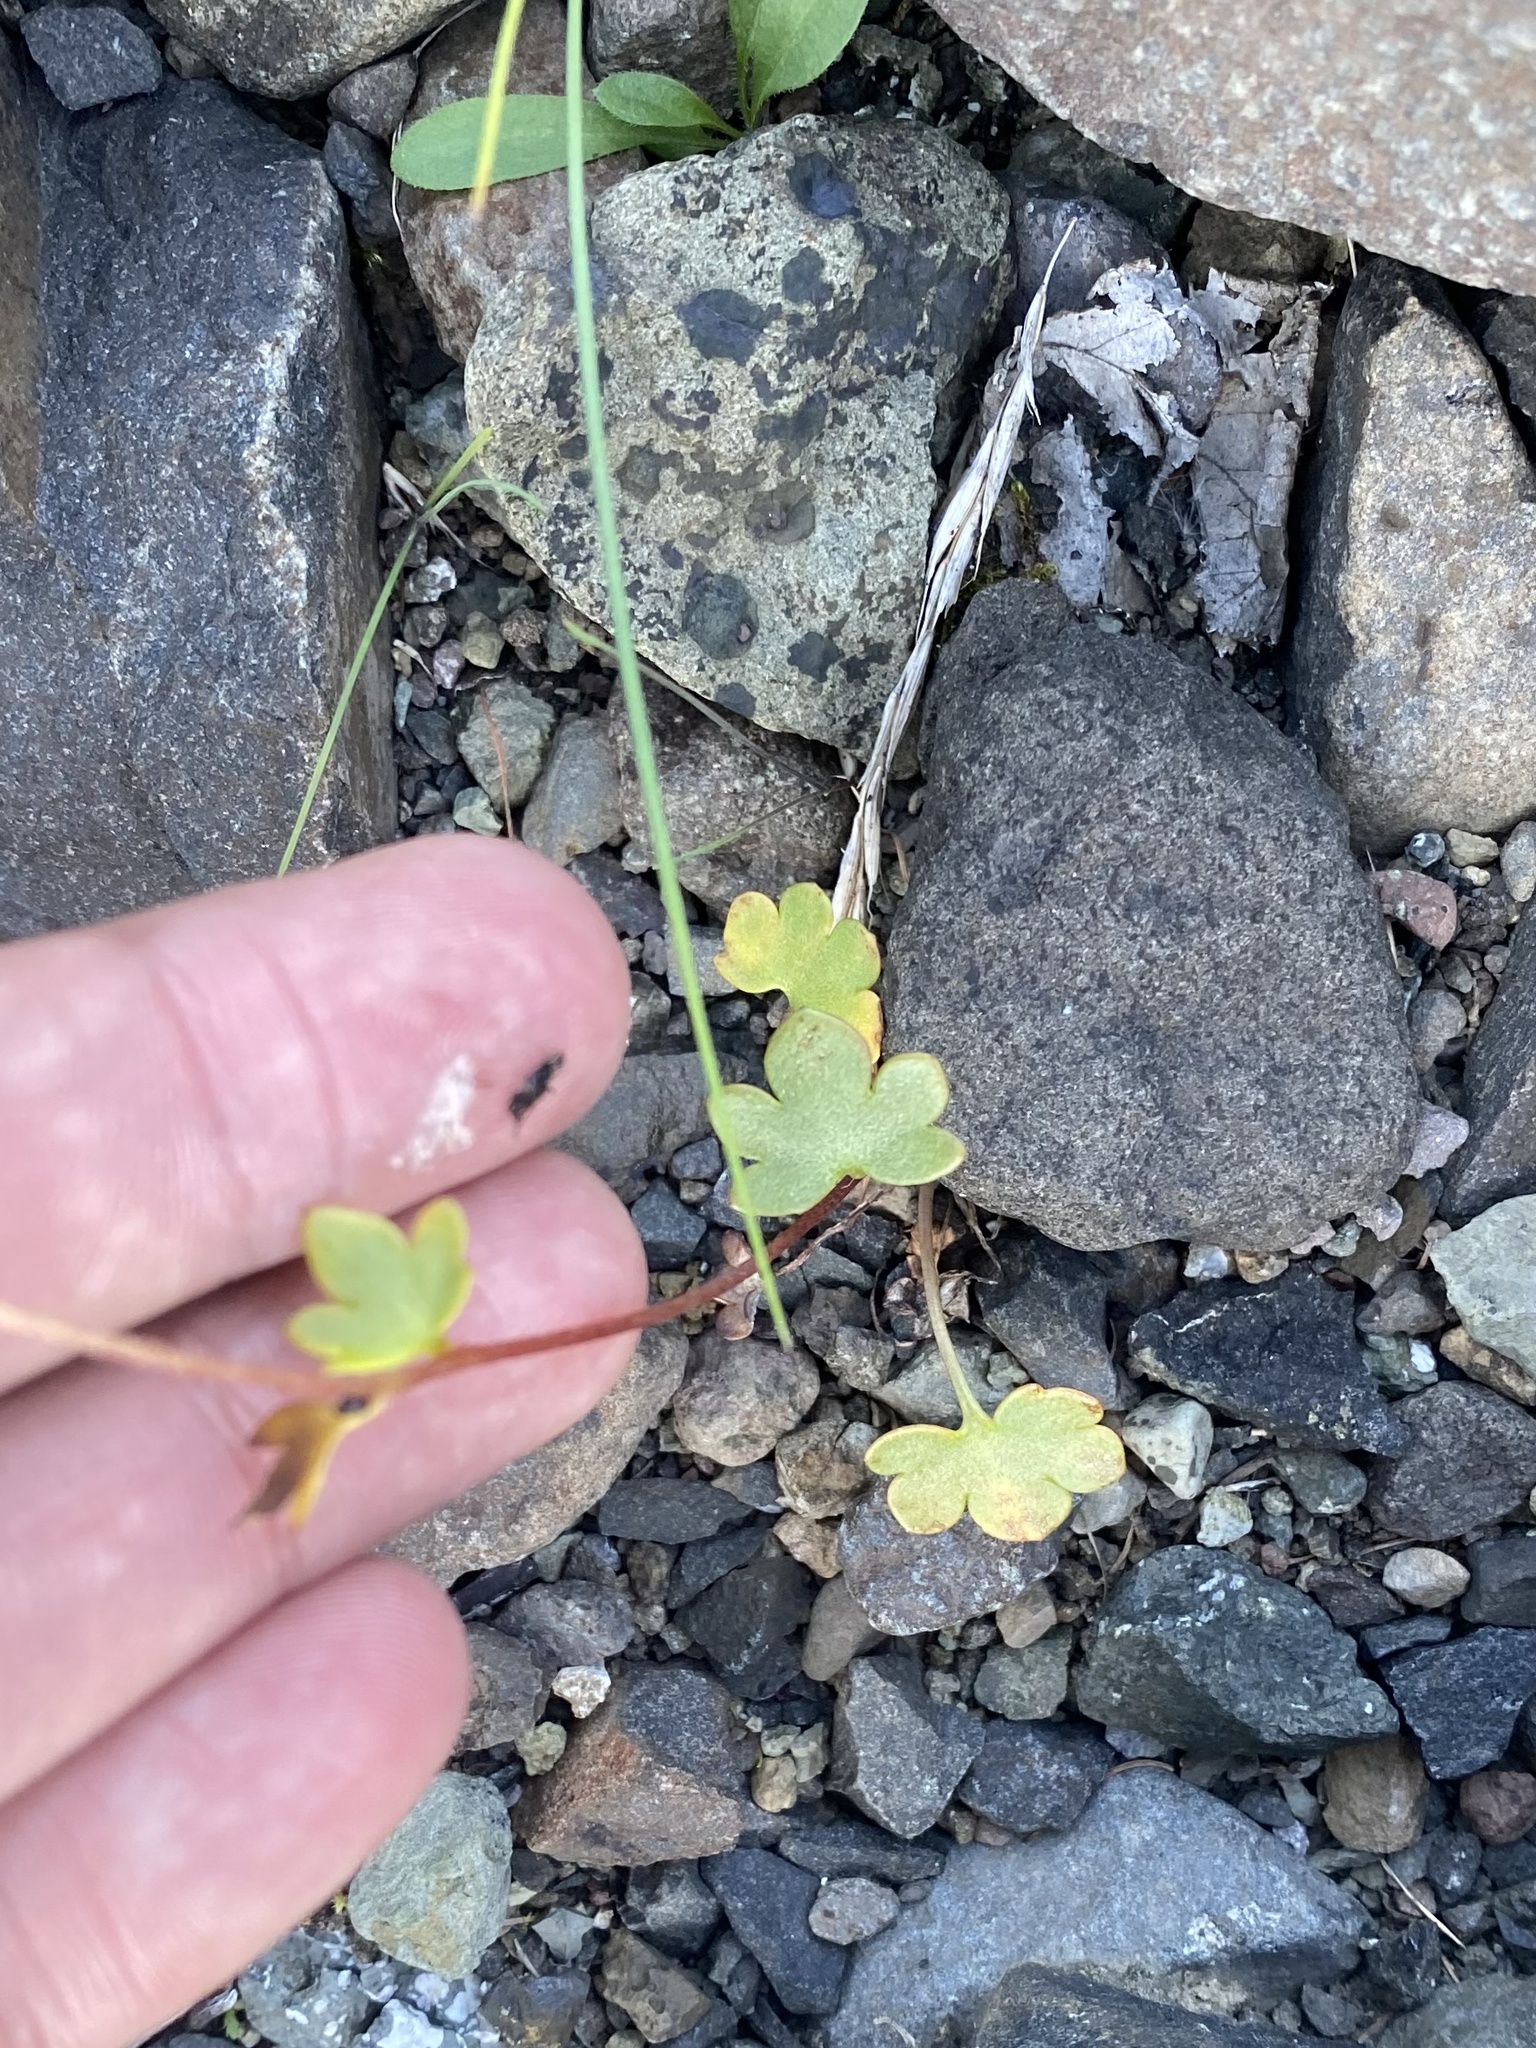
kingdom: Plantae
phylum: Tracheophyta
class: Magnoliopsida
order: Saxifragales
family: Saxifragaceae
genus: Saxifraga
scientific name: Saxifraga cernua
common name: Drooping saxifrage
